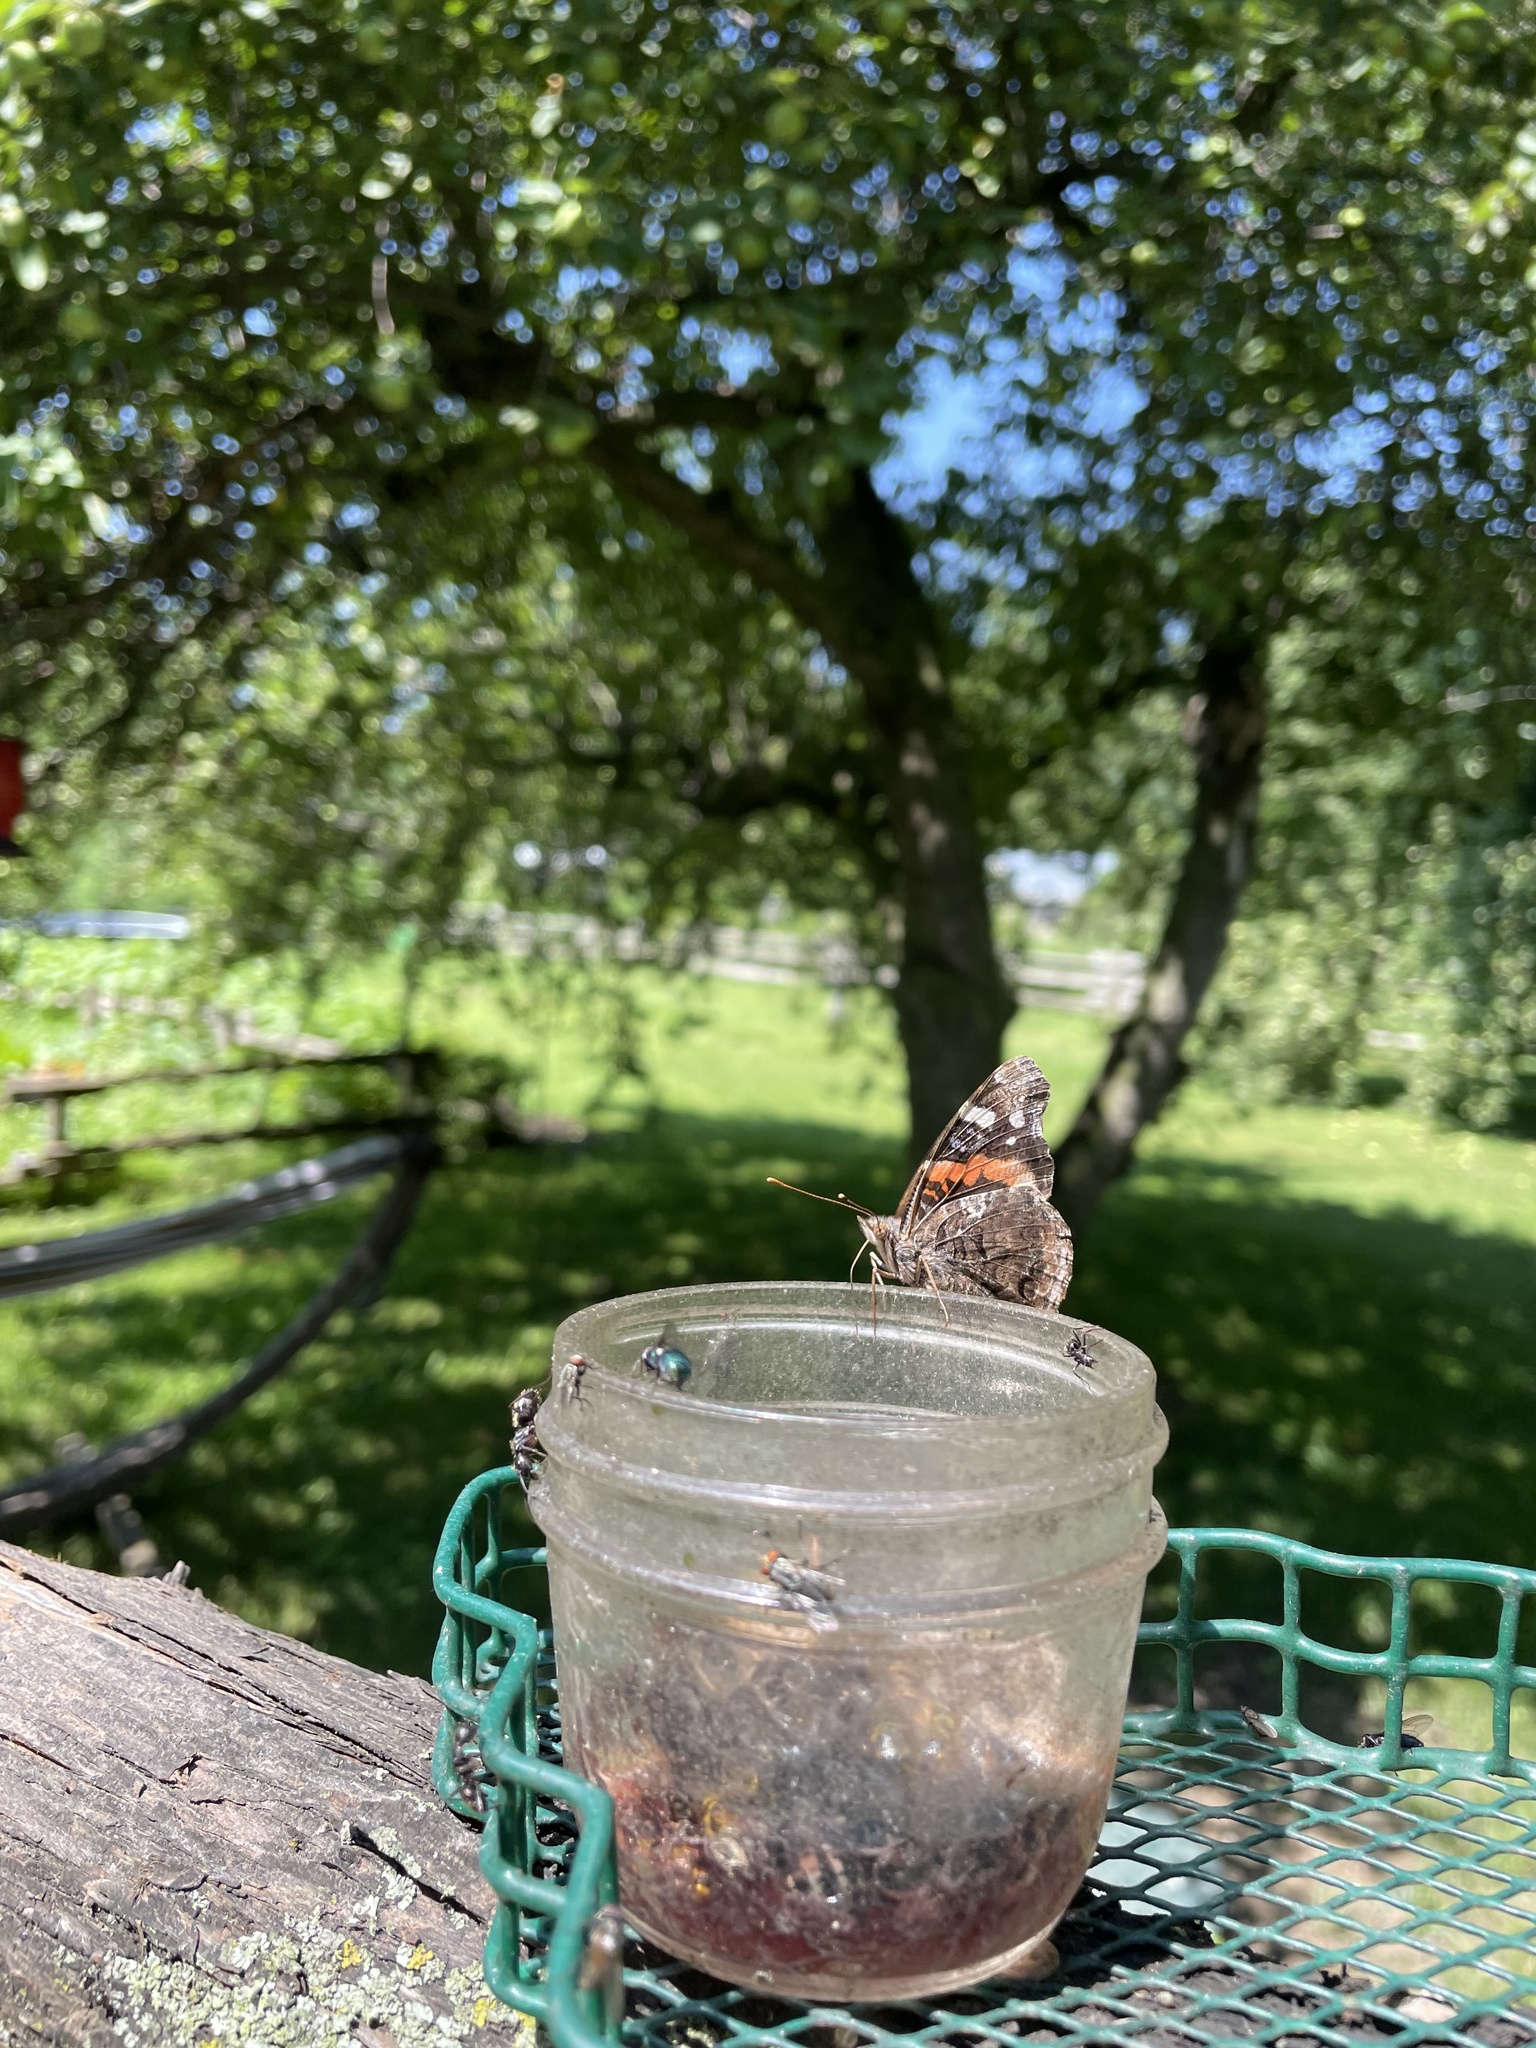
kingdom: Animalia
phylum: Arthropoda
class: Insecta
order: Lepidoptera
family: Nymphalidae
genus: Vanessa
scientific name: Vanessa atalanta
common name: Red admiral
